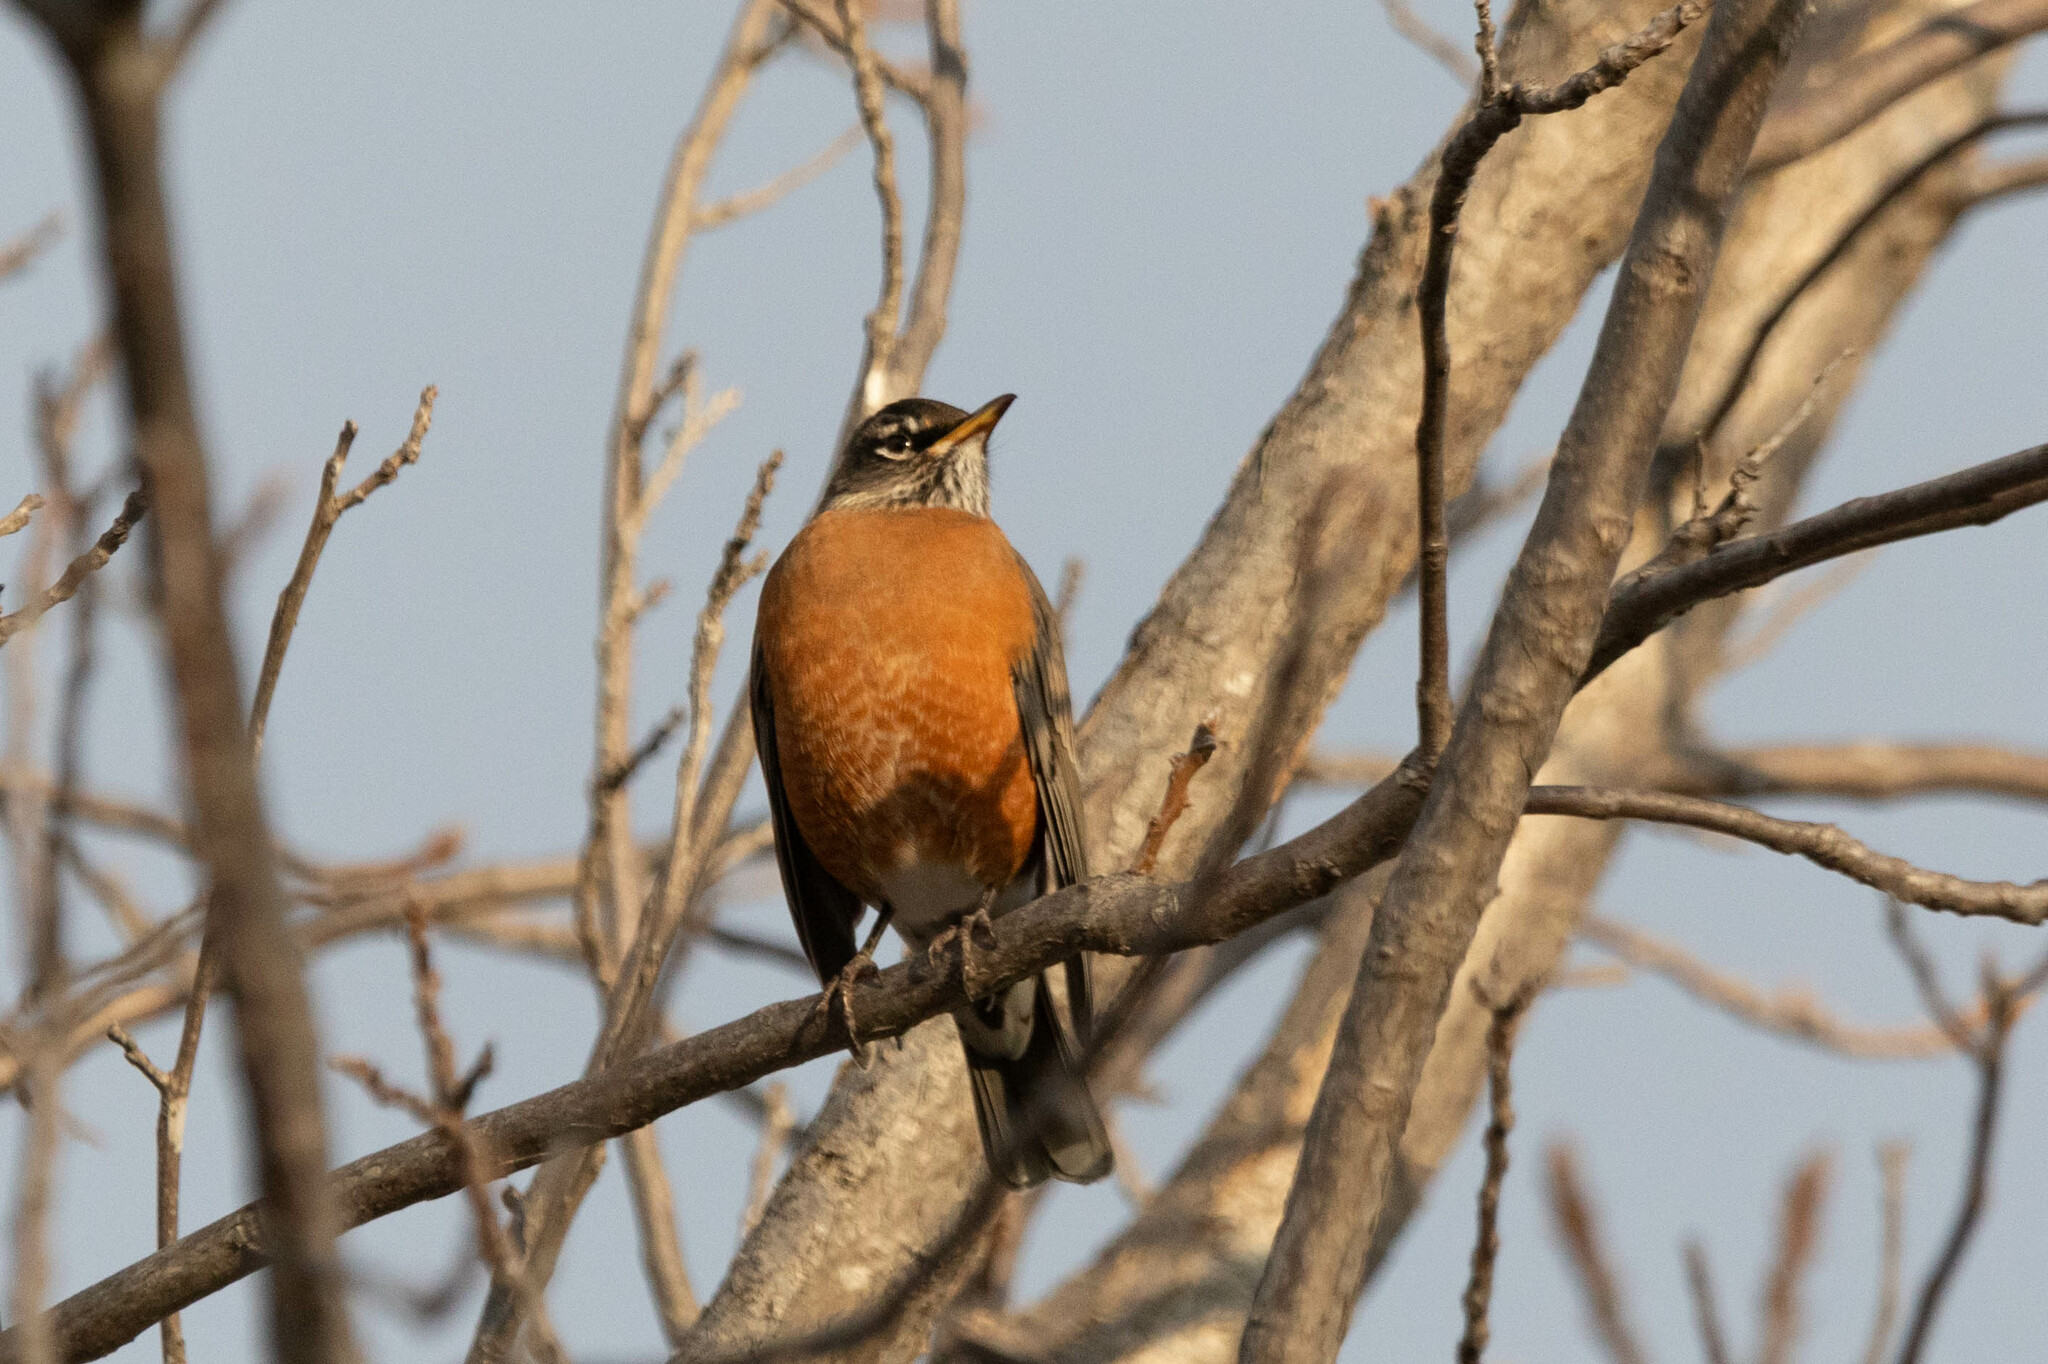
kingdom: Animalia
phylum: Chordata
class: Aves
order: Passeriformes
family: Turdidae
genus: Turdus
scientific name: Turdus migratorius
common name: American robin
